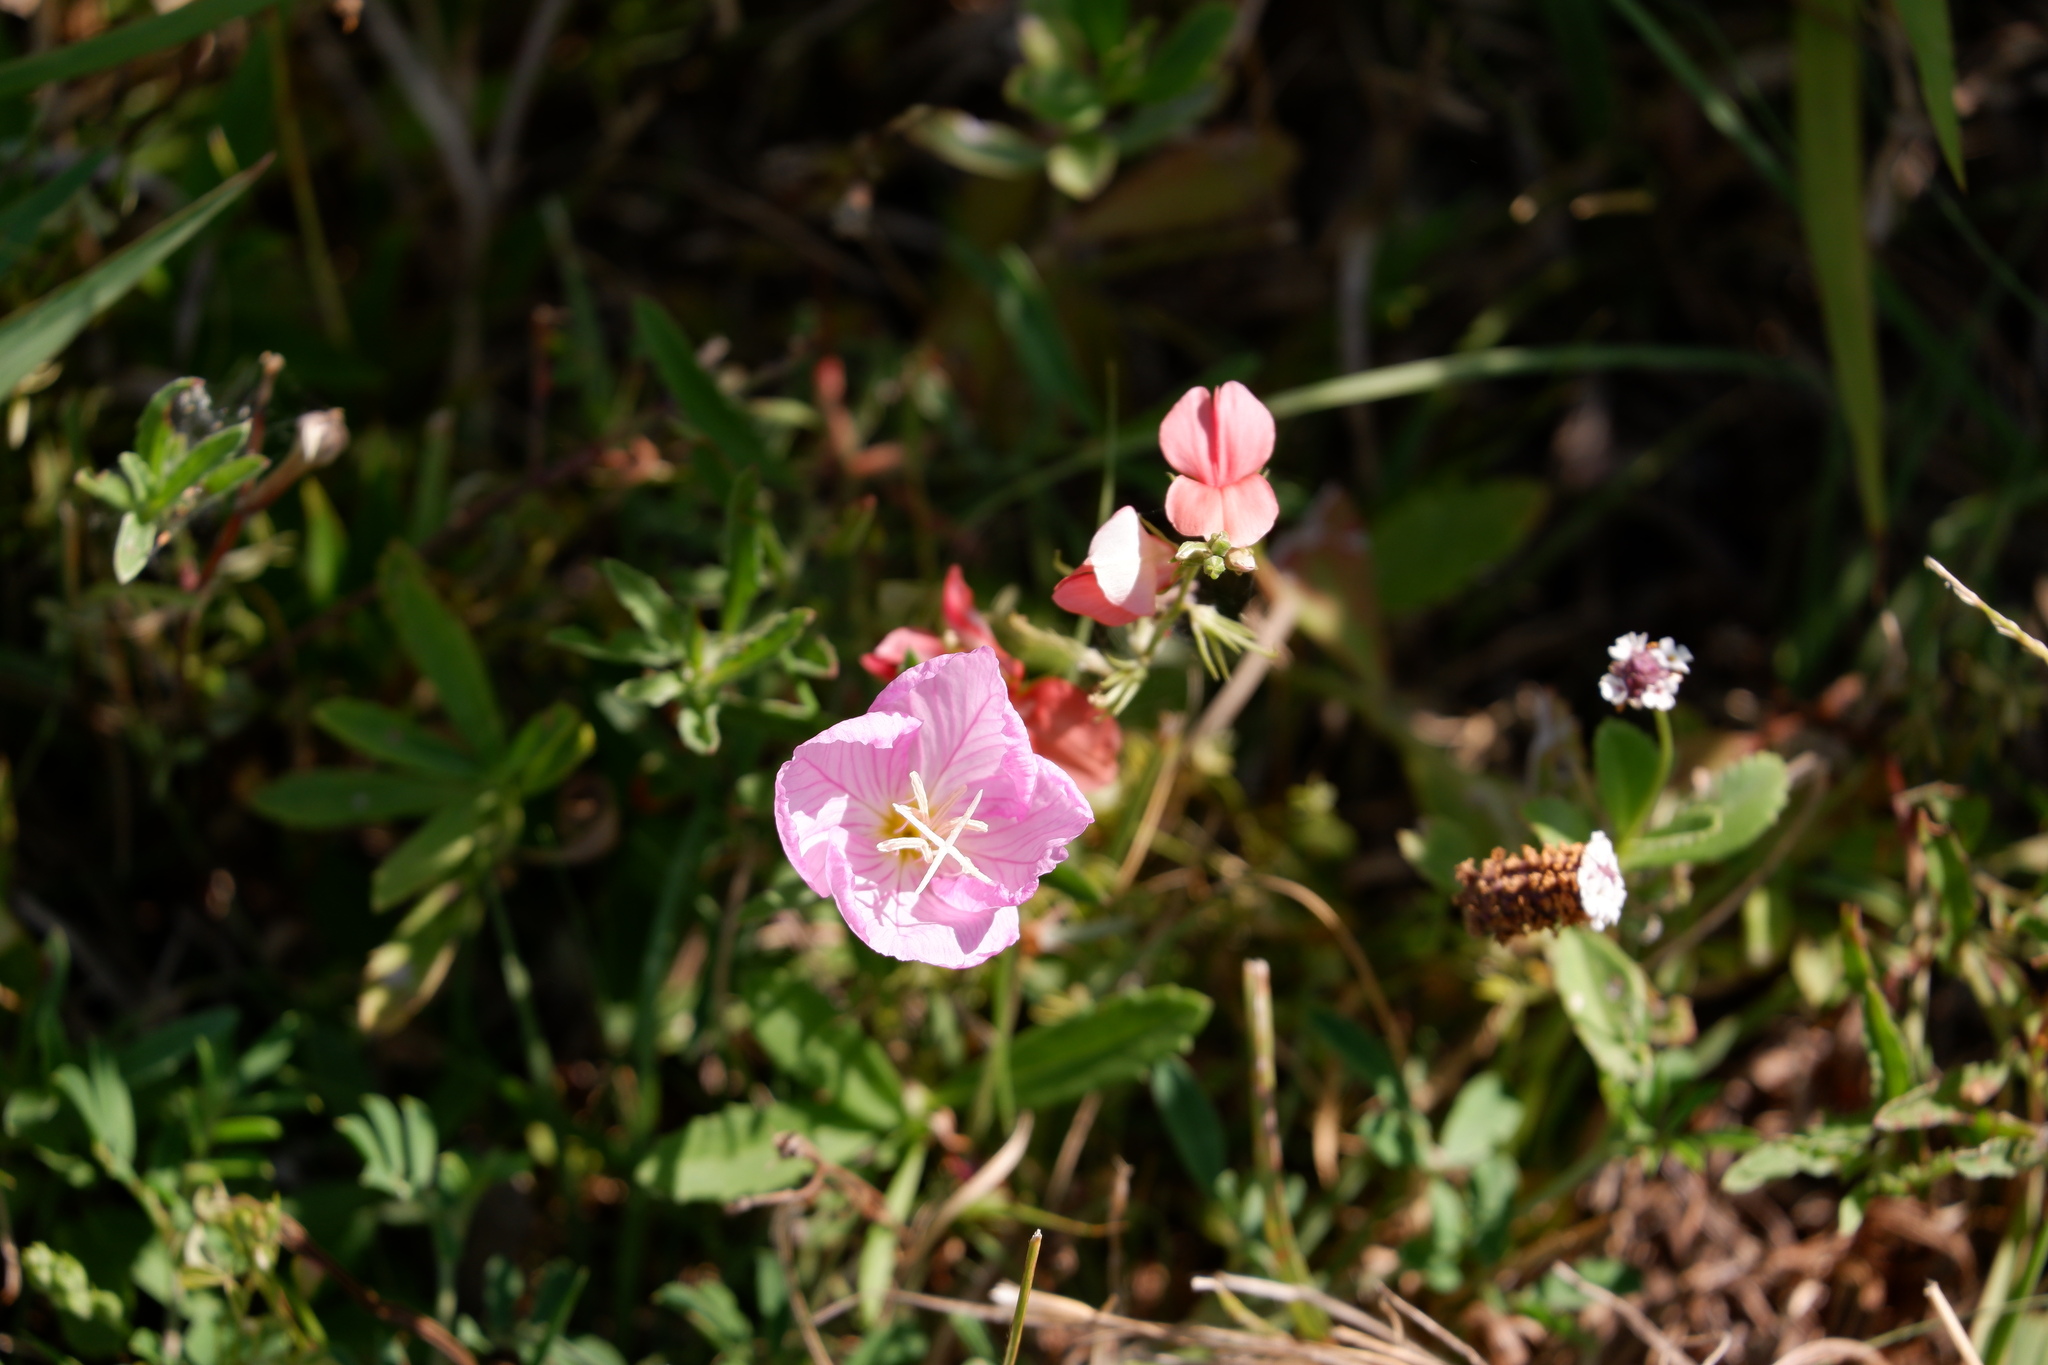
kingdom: Plantae
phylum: Tracheophyta
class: Magnoliopsida
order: Myrtales
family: Onagraceae
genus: Oenothera
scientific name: Oenothera speciosa
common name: White evening-primrose
